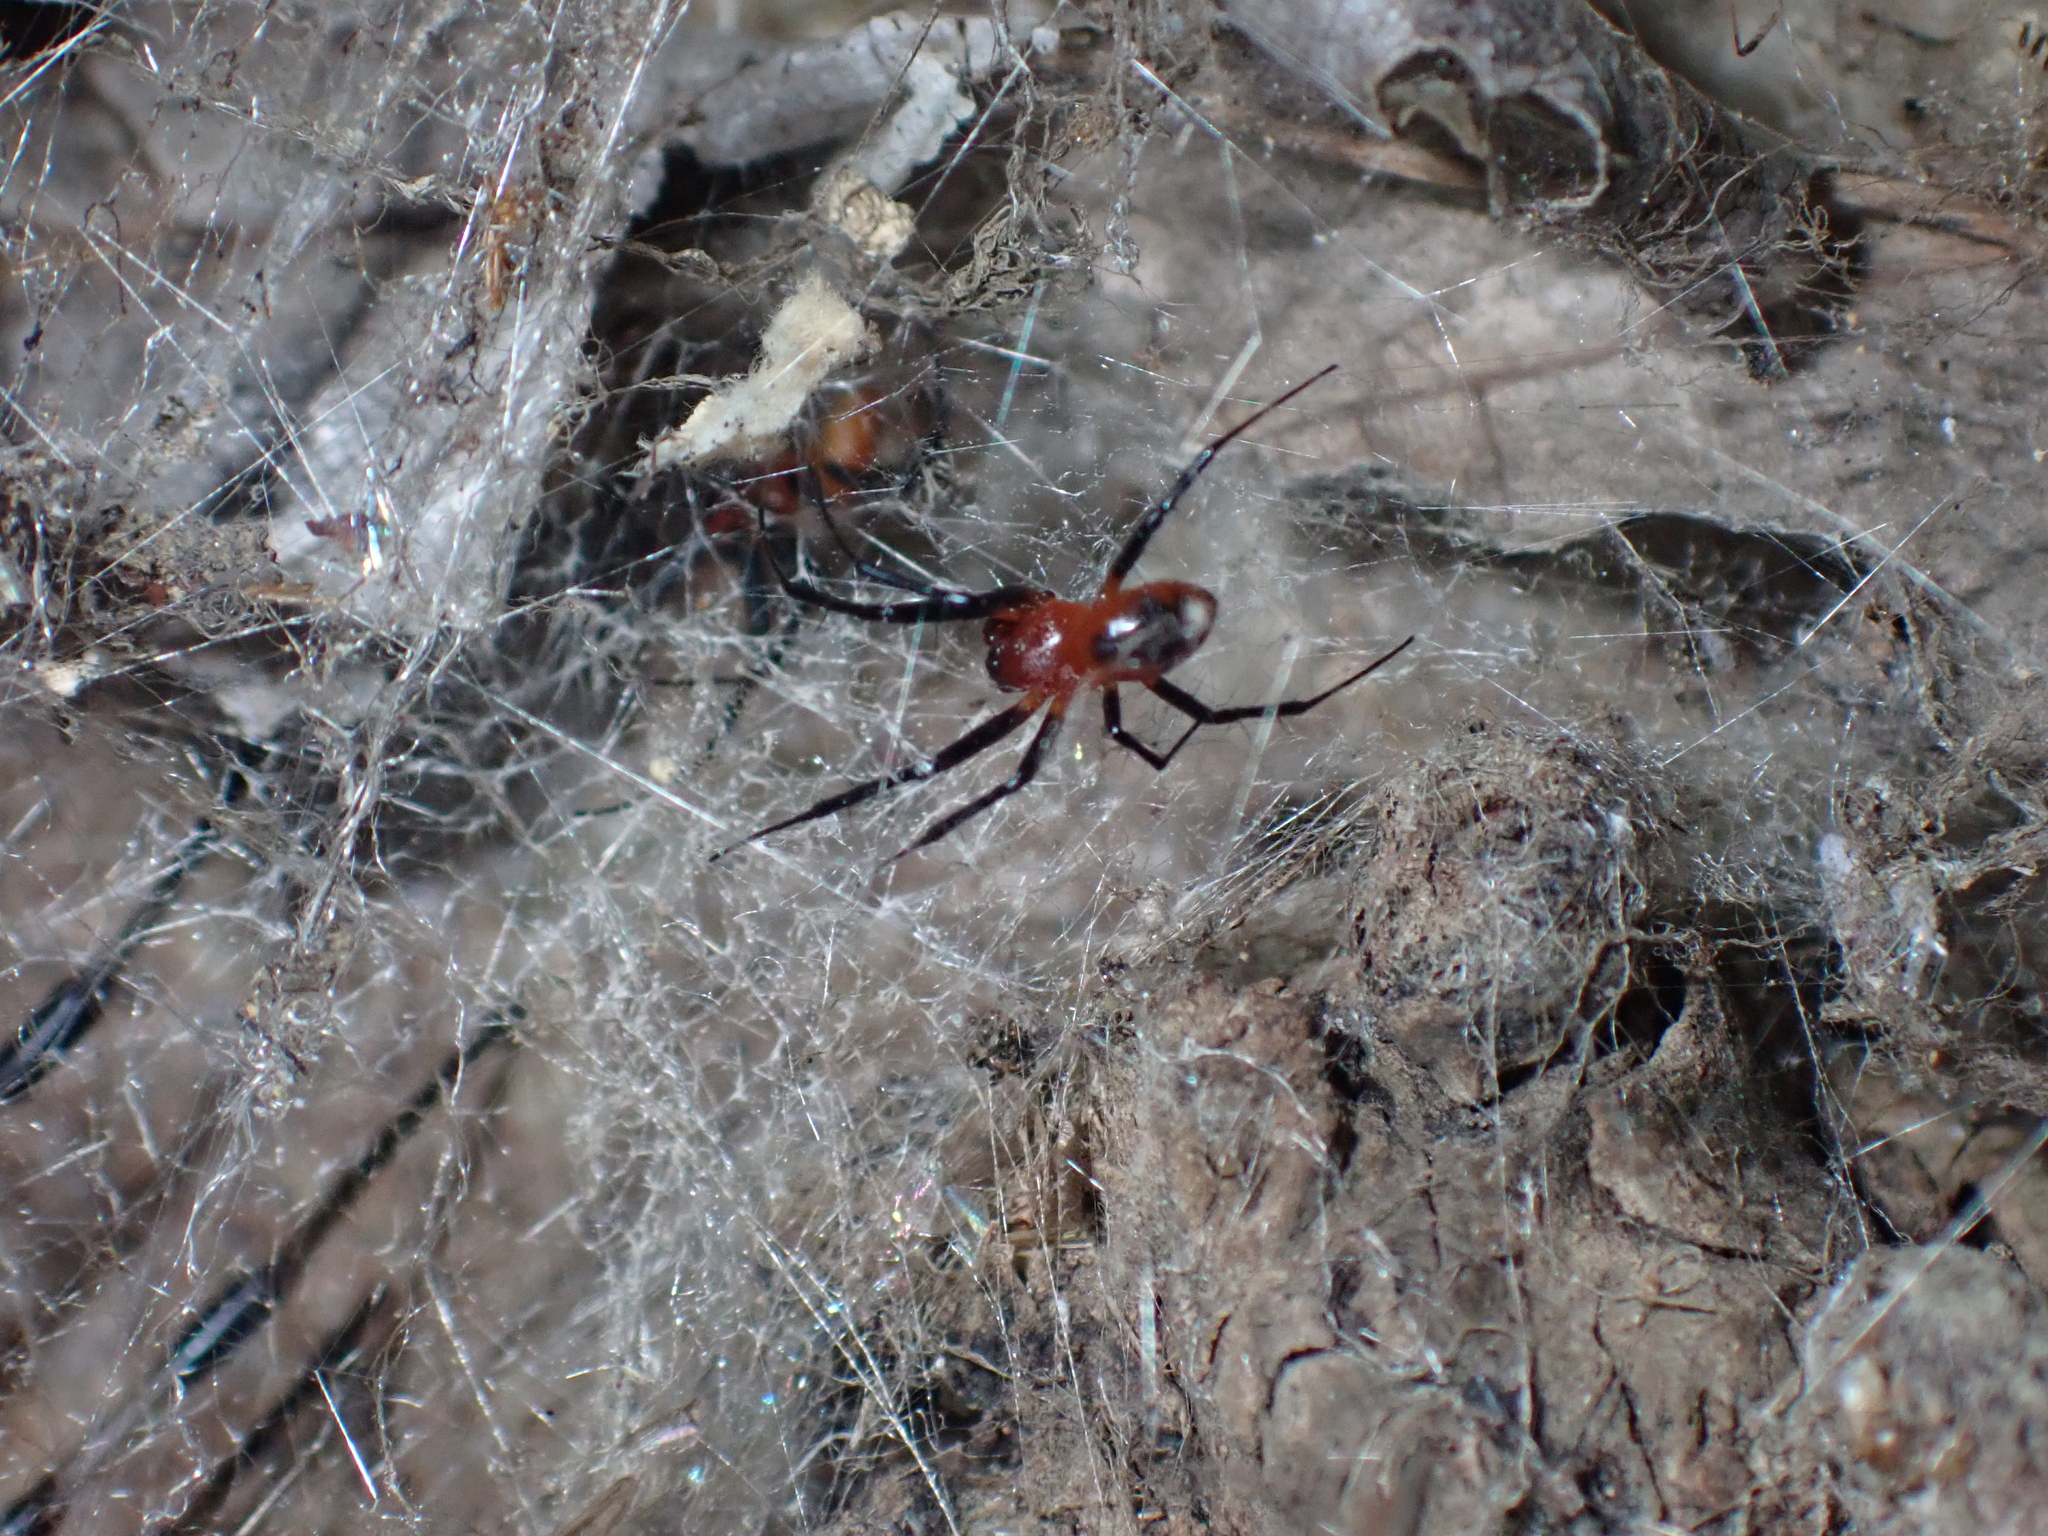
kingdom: Animalia
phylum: Arthropoda
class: Arachnida
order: Araneae
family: Araneidae
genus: Nephilengys
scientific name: Nephilengys malabarensis
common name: Asian hermit spider
